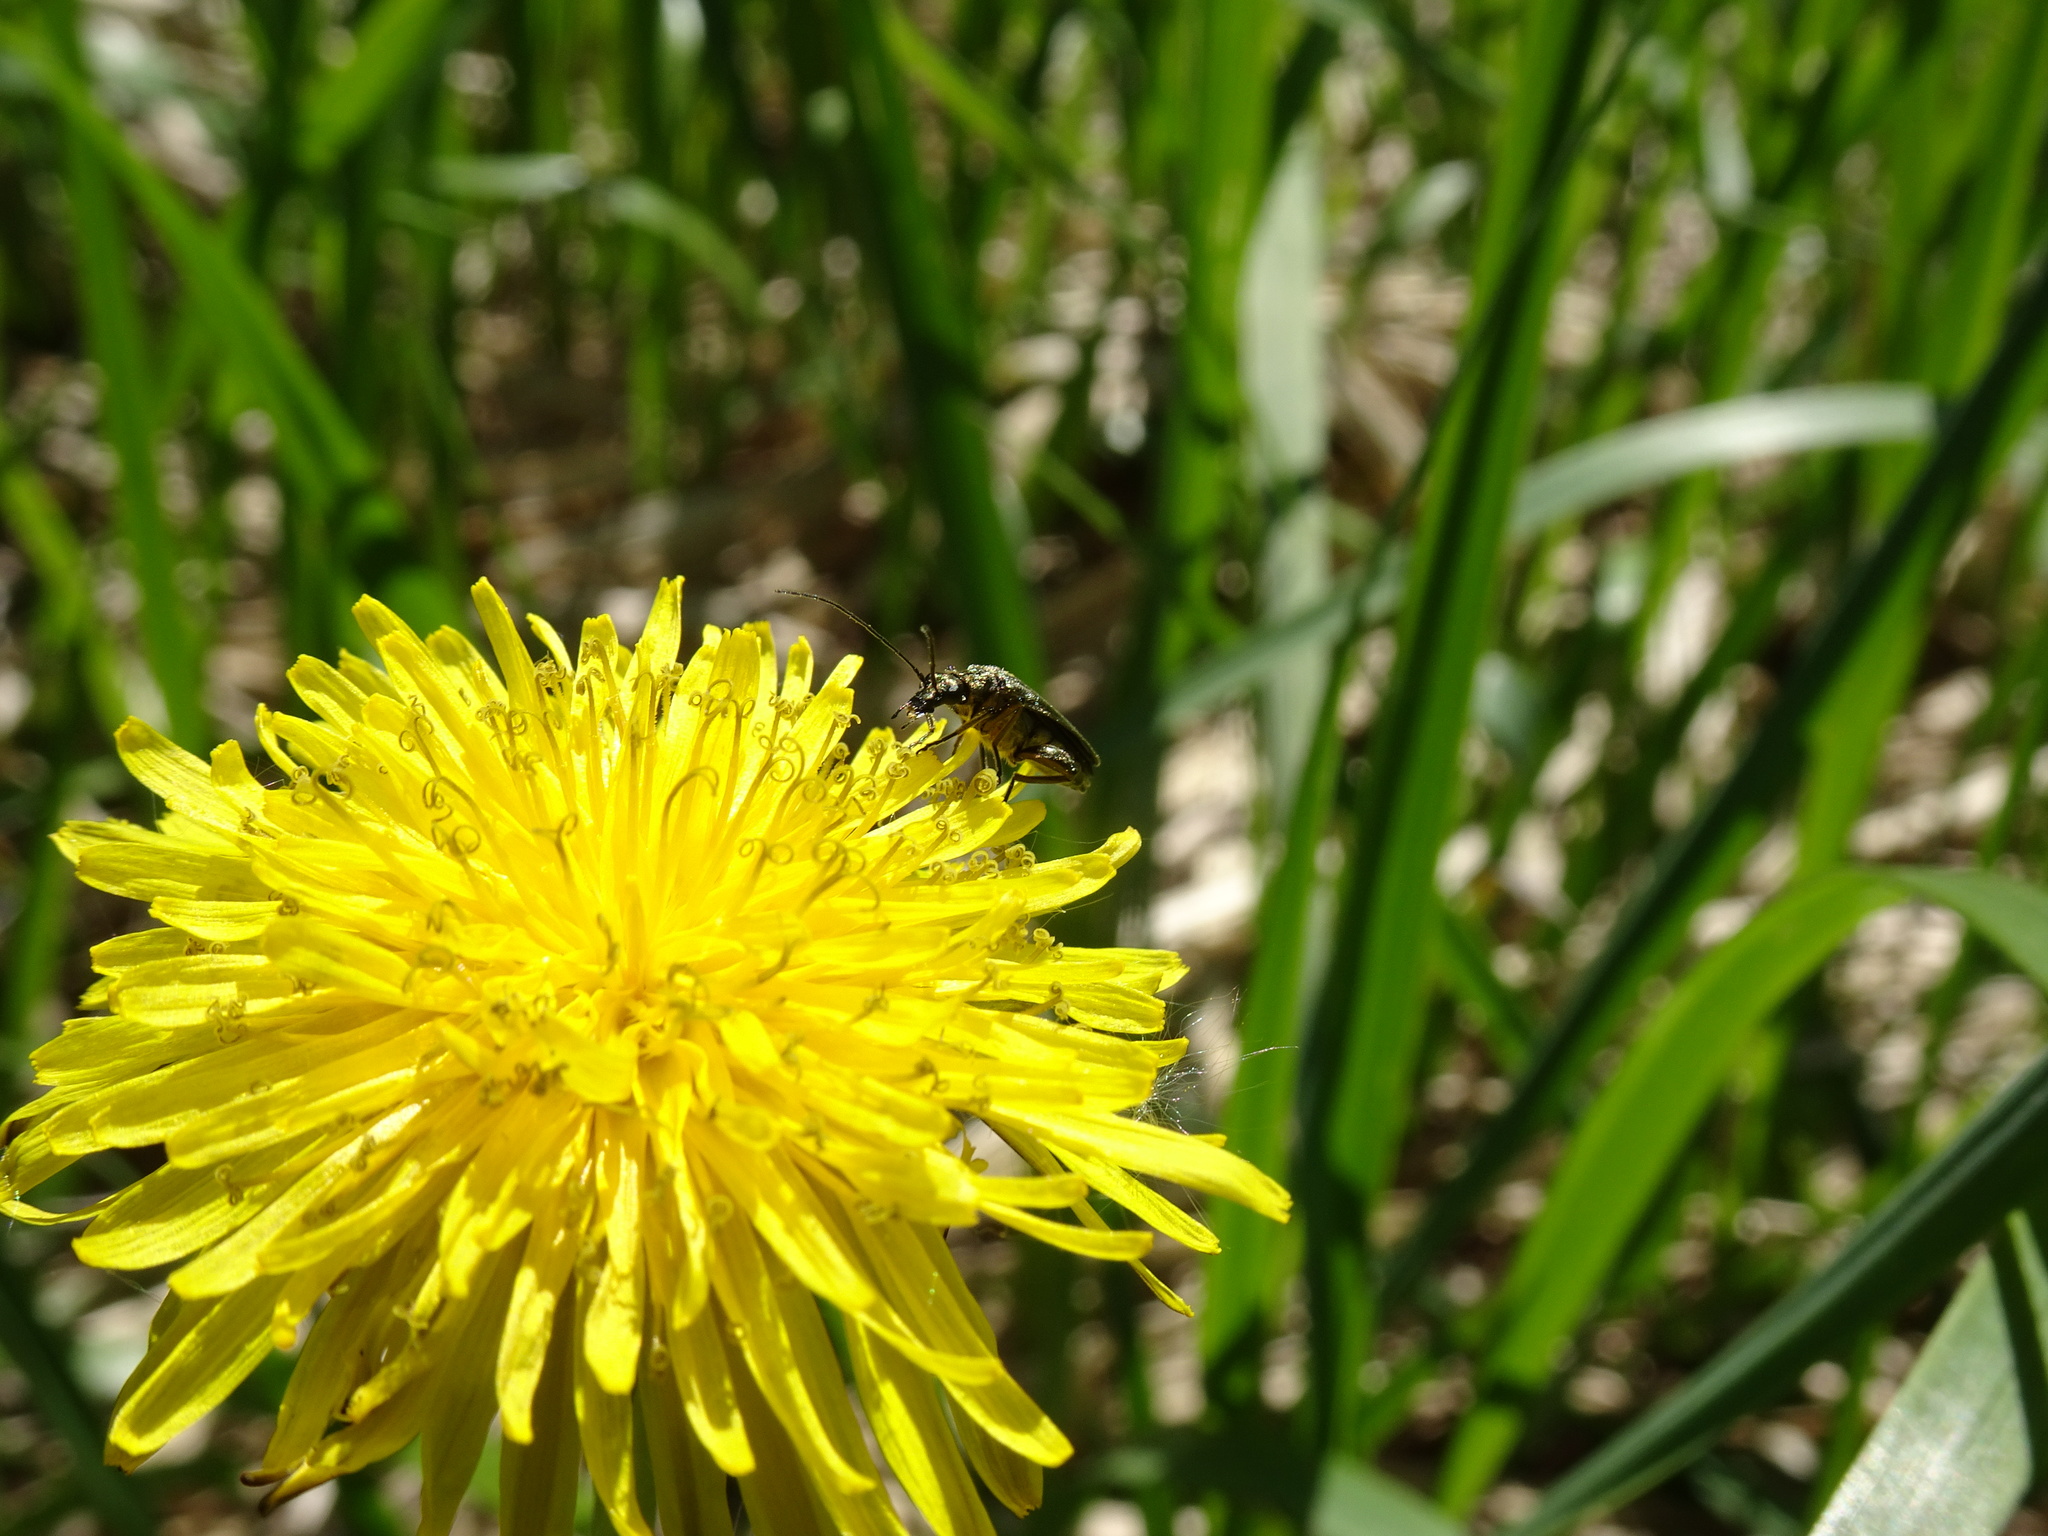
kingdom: Animalia
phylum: Arthropoda
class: Insecta
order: Coleoptera
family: Oedemeridae
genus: Oedemera
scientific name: Oedemera virescens
